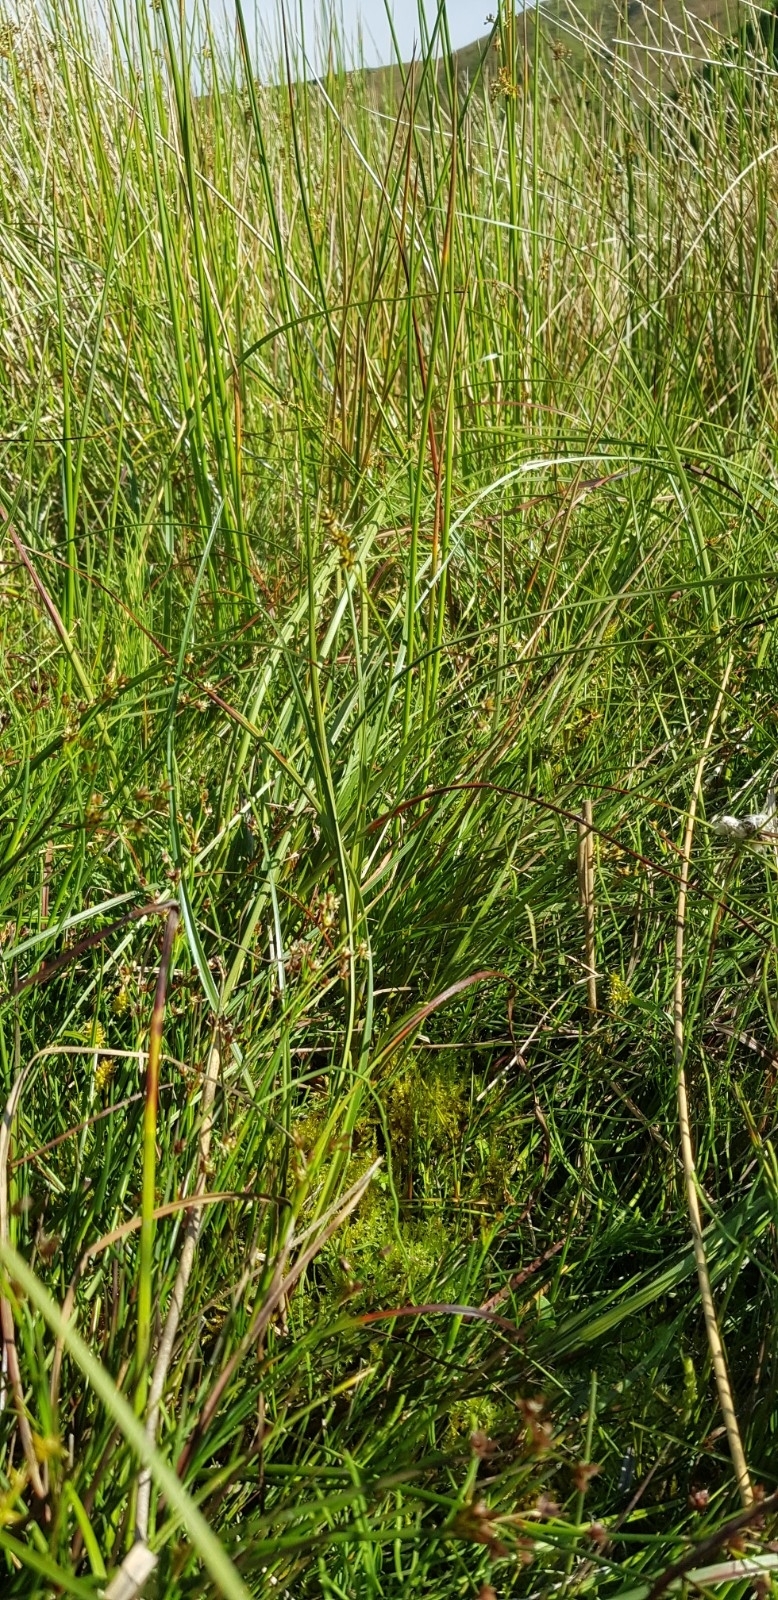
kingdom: Plantae
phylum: Bryophyta
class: Bryopsida
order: Bryales
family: Bryaceae
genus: Ptychostomum
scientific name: Ptychostomum pseudotriquetrum
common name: Long-leaved thread moss
